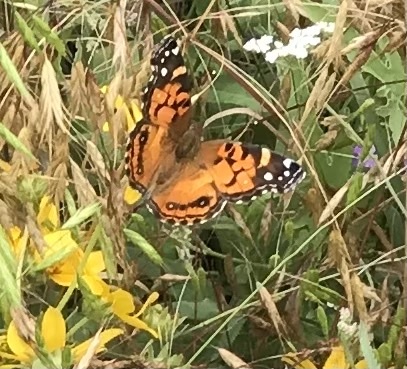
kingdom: Animalia
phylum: Arthropoda
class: Insecta
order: Lepidoptera
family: Nymphalidae
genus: Vanessa
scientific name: Vanessa virginiensis
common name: American lady
